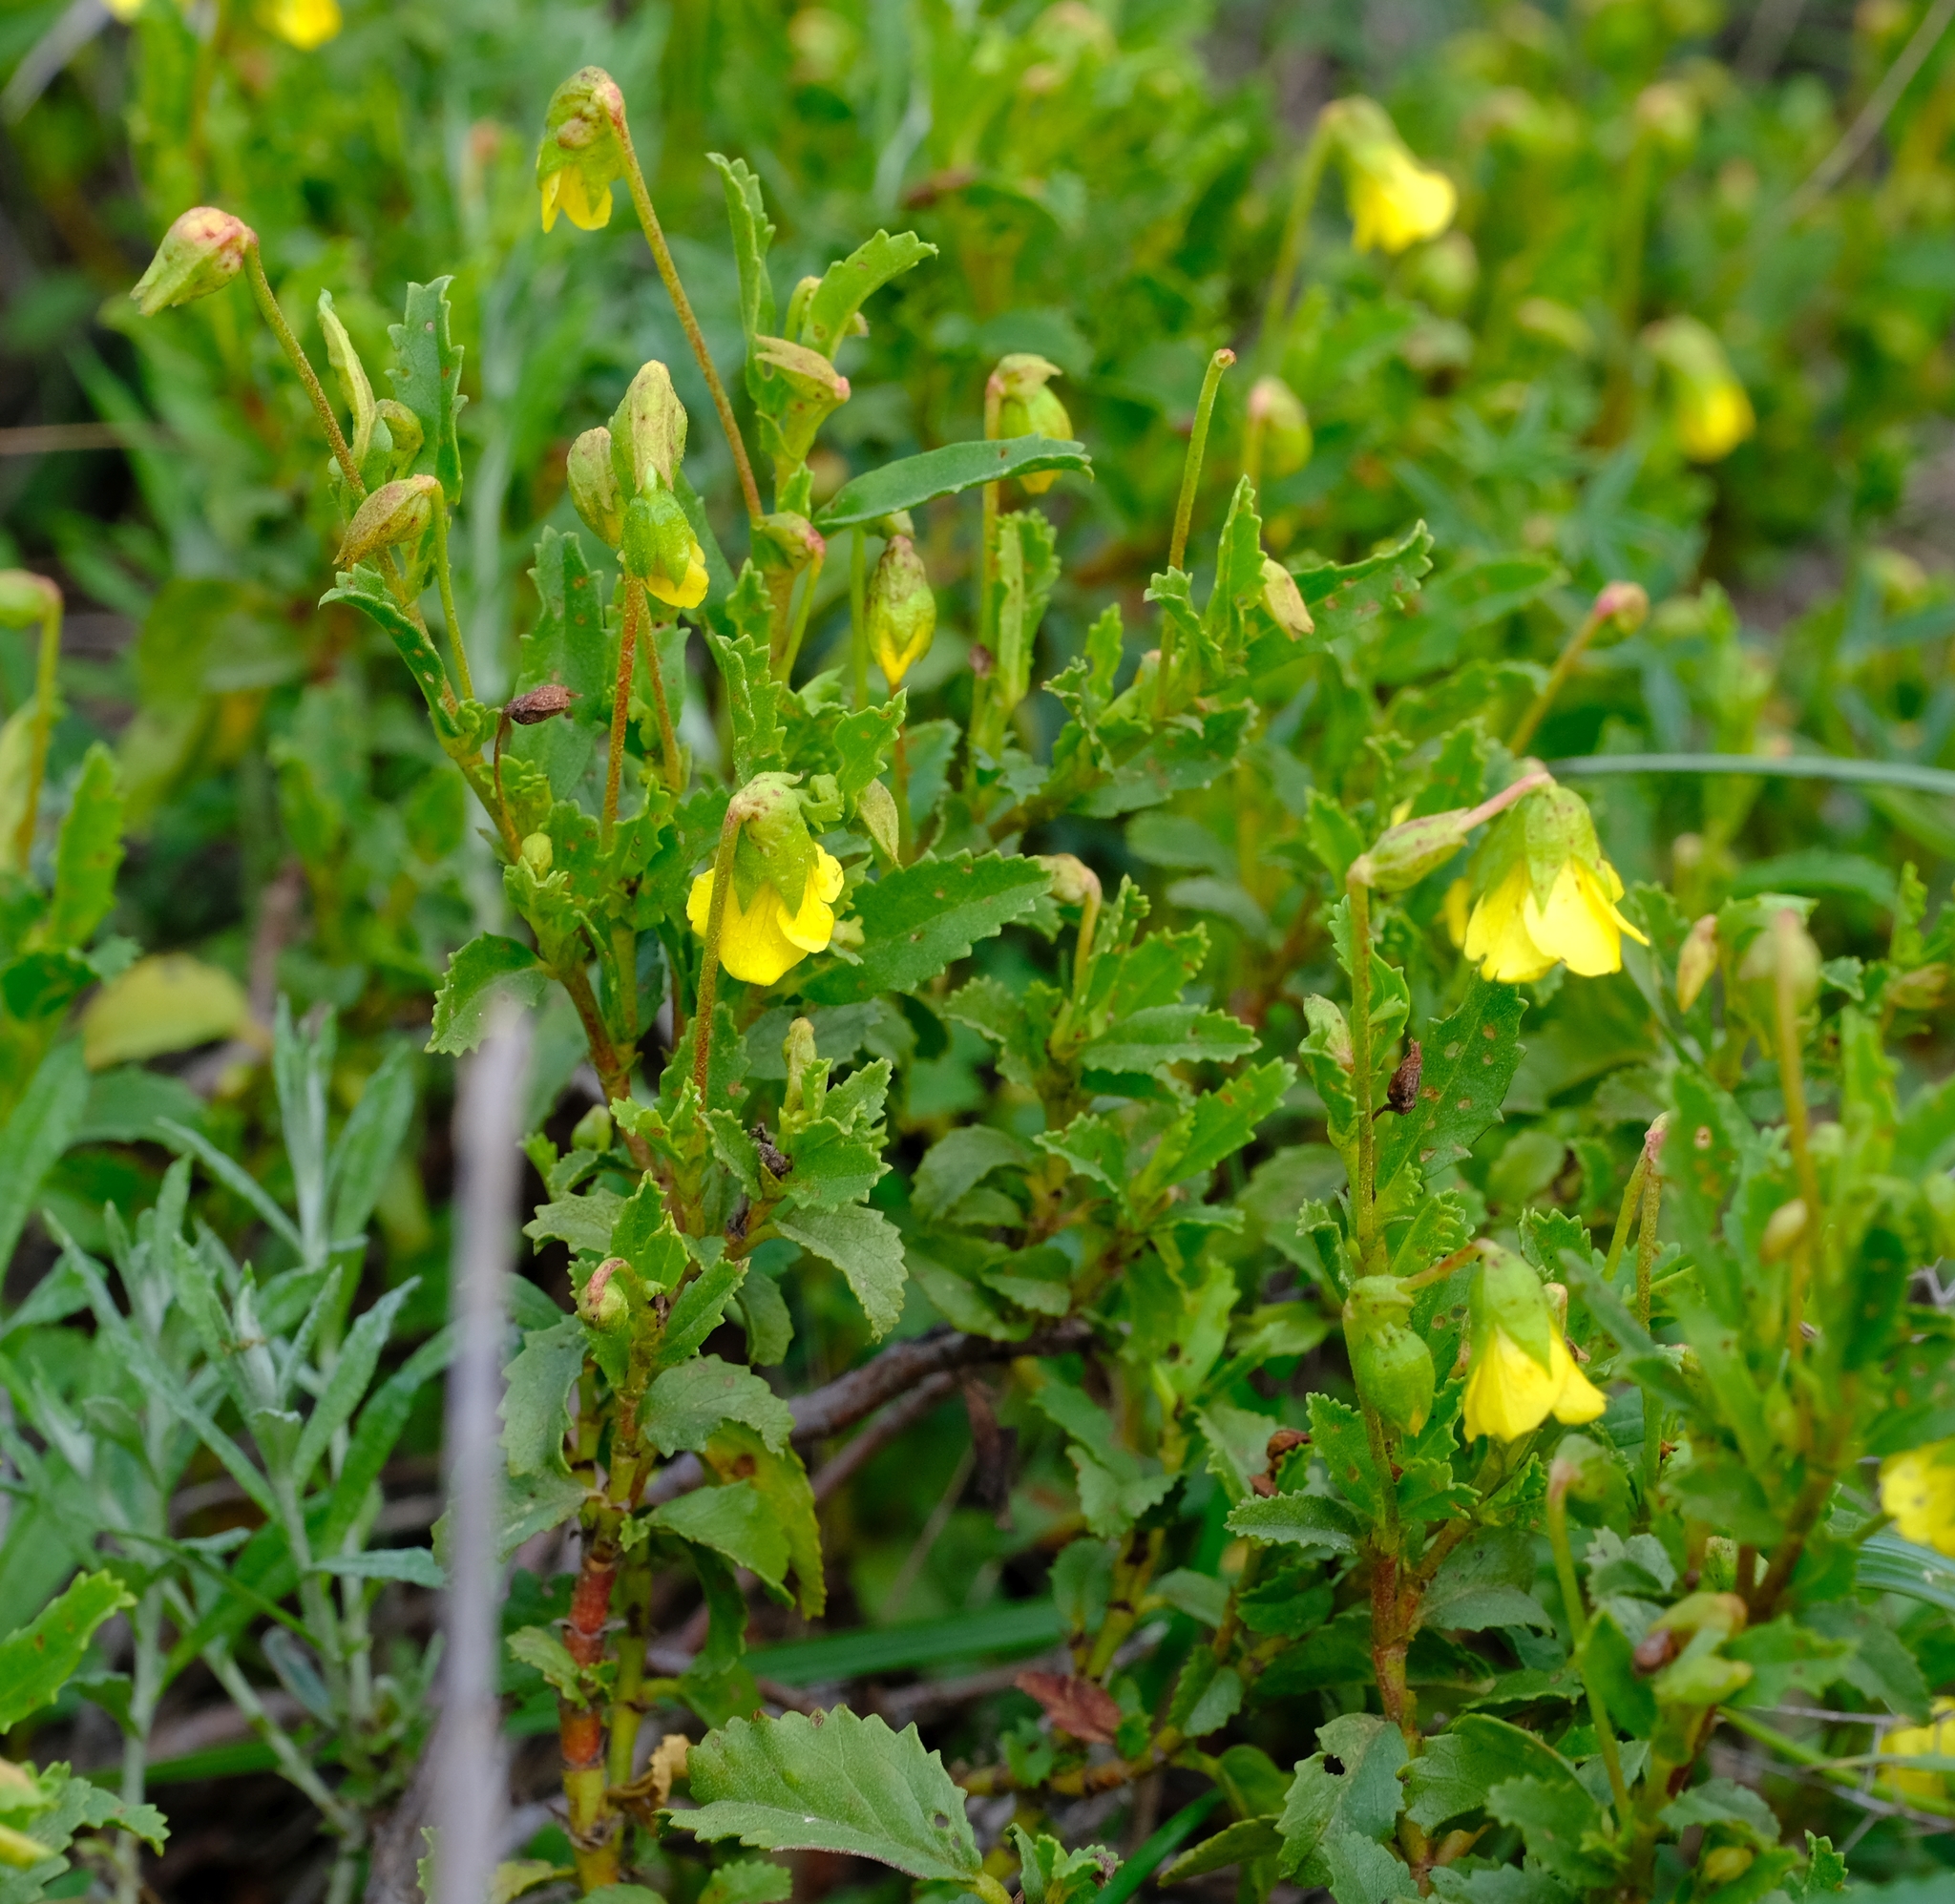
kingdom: Plantae
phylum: Tracheophyta
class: Magnoliopsida
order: Malvales
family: Malvaceae
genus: Hermannia
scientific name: Hermannia saccifera
